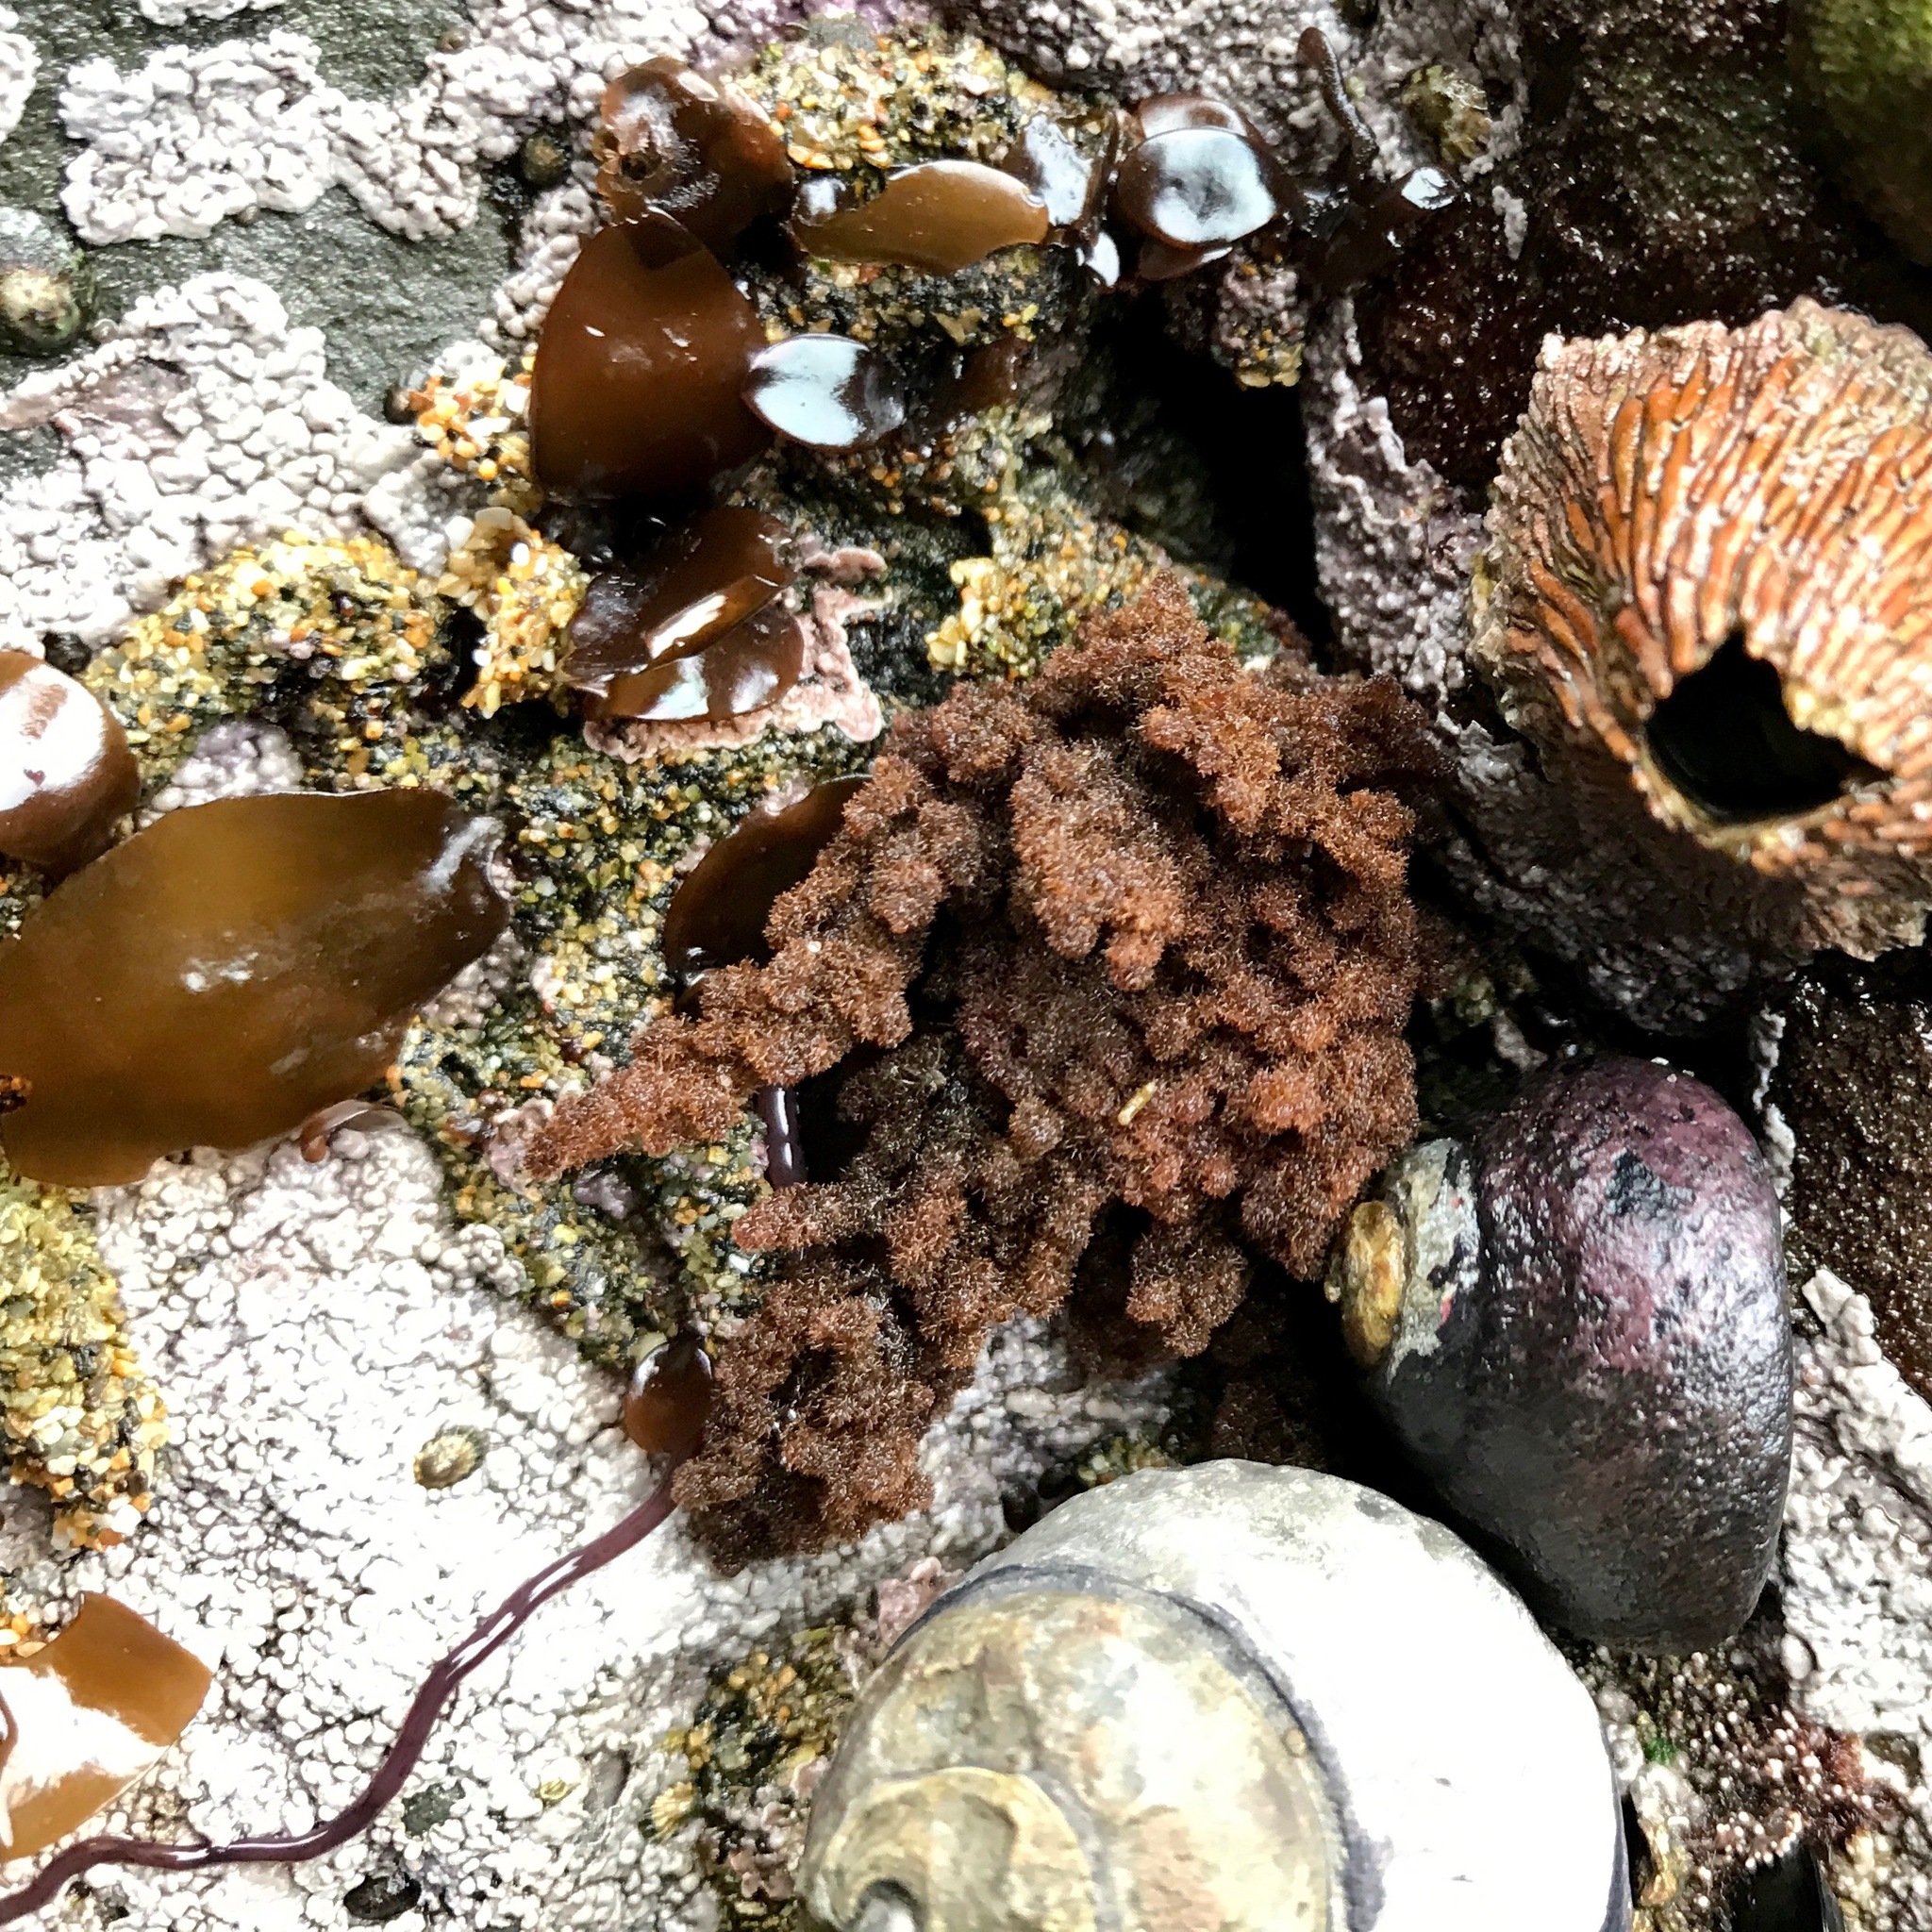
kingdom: Plantae
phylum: Rhodophyta
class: Florideophyceae
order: Ceramiales
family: Callithamniaceae
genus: Callithamnion
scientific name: Callithamnion pikeanum
